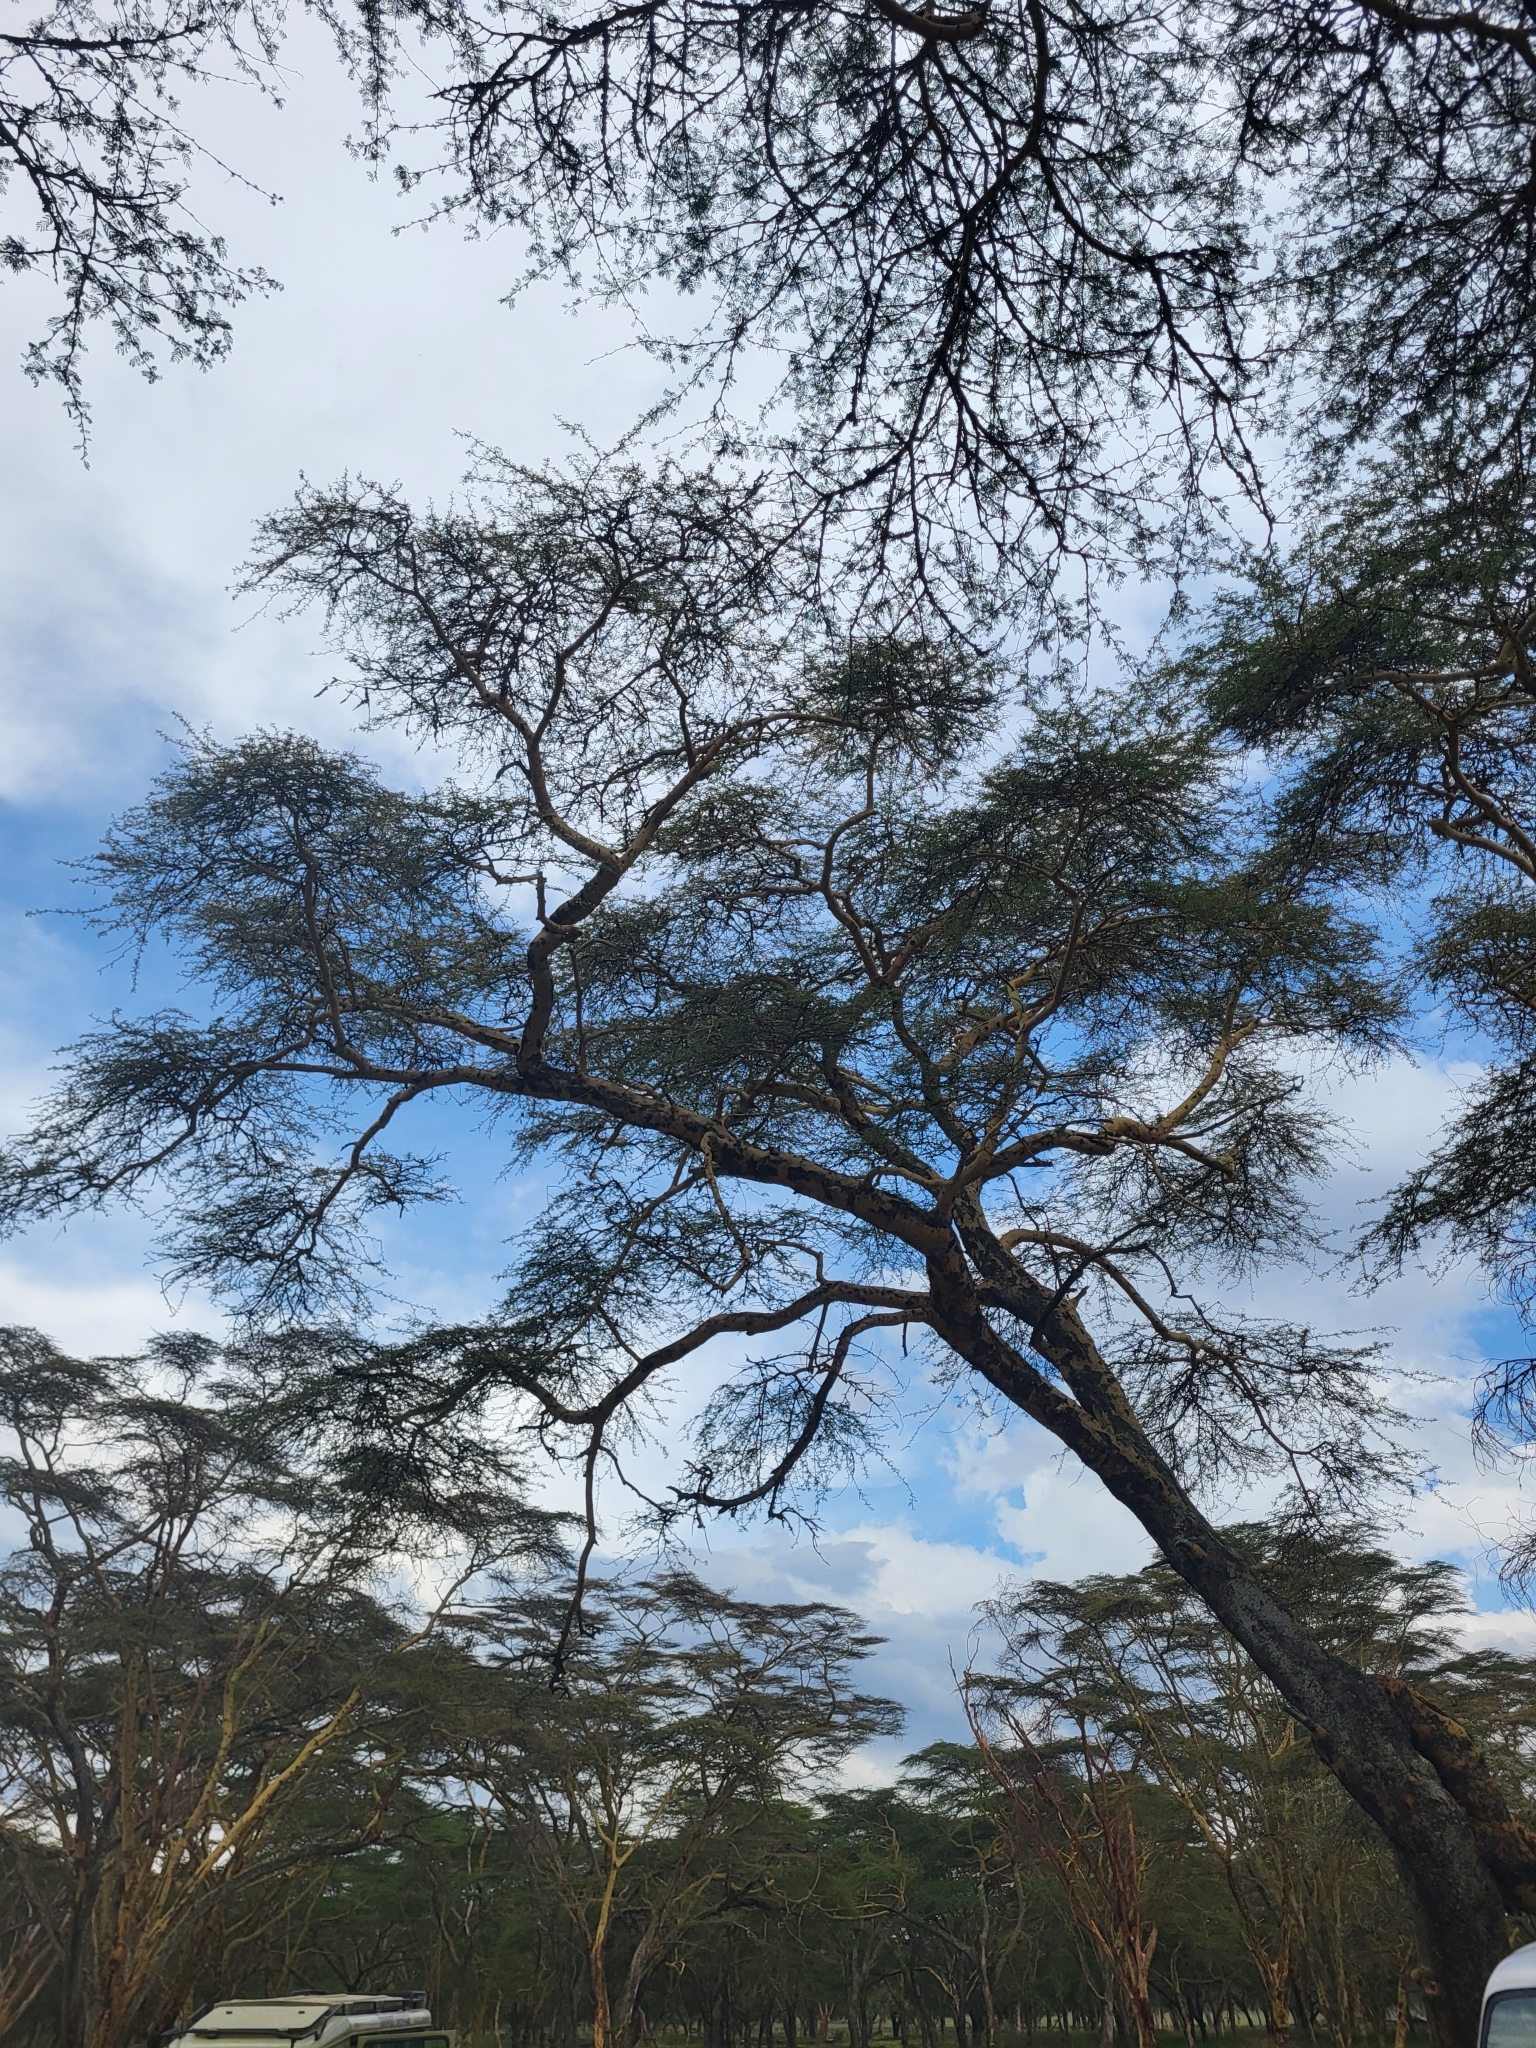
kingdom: Plantae
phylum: Tracheophyta
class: Magnoliopsida
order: Fabales
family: Fabaceae
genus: Vachellia
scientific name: Vachellia xanthophloea
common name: Fever tree
